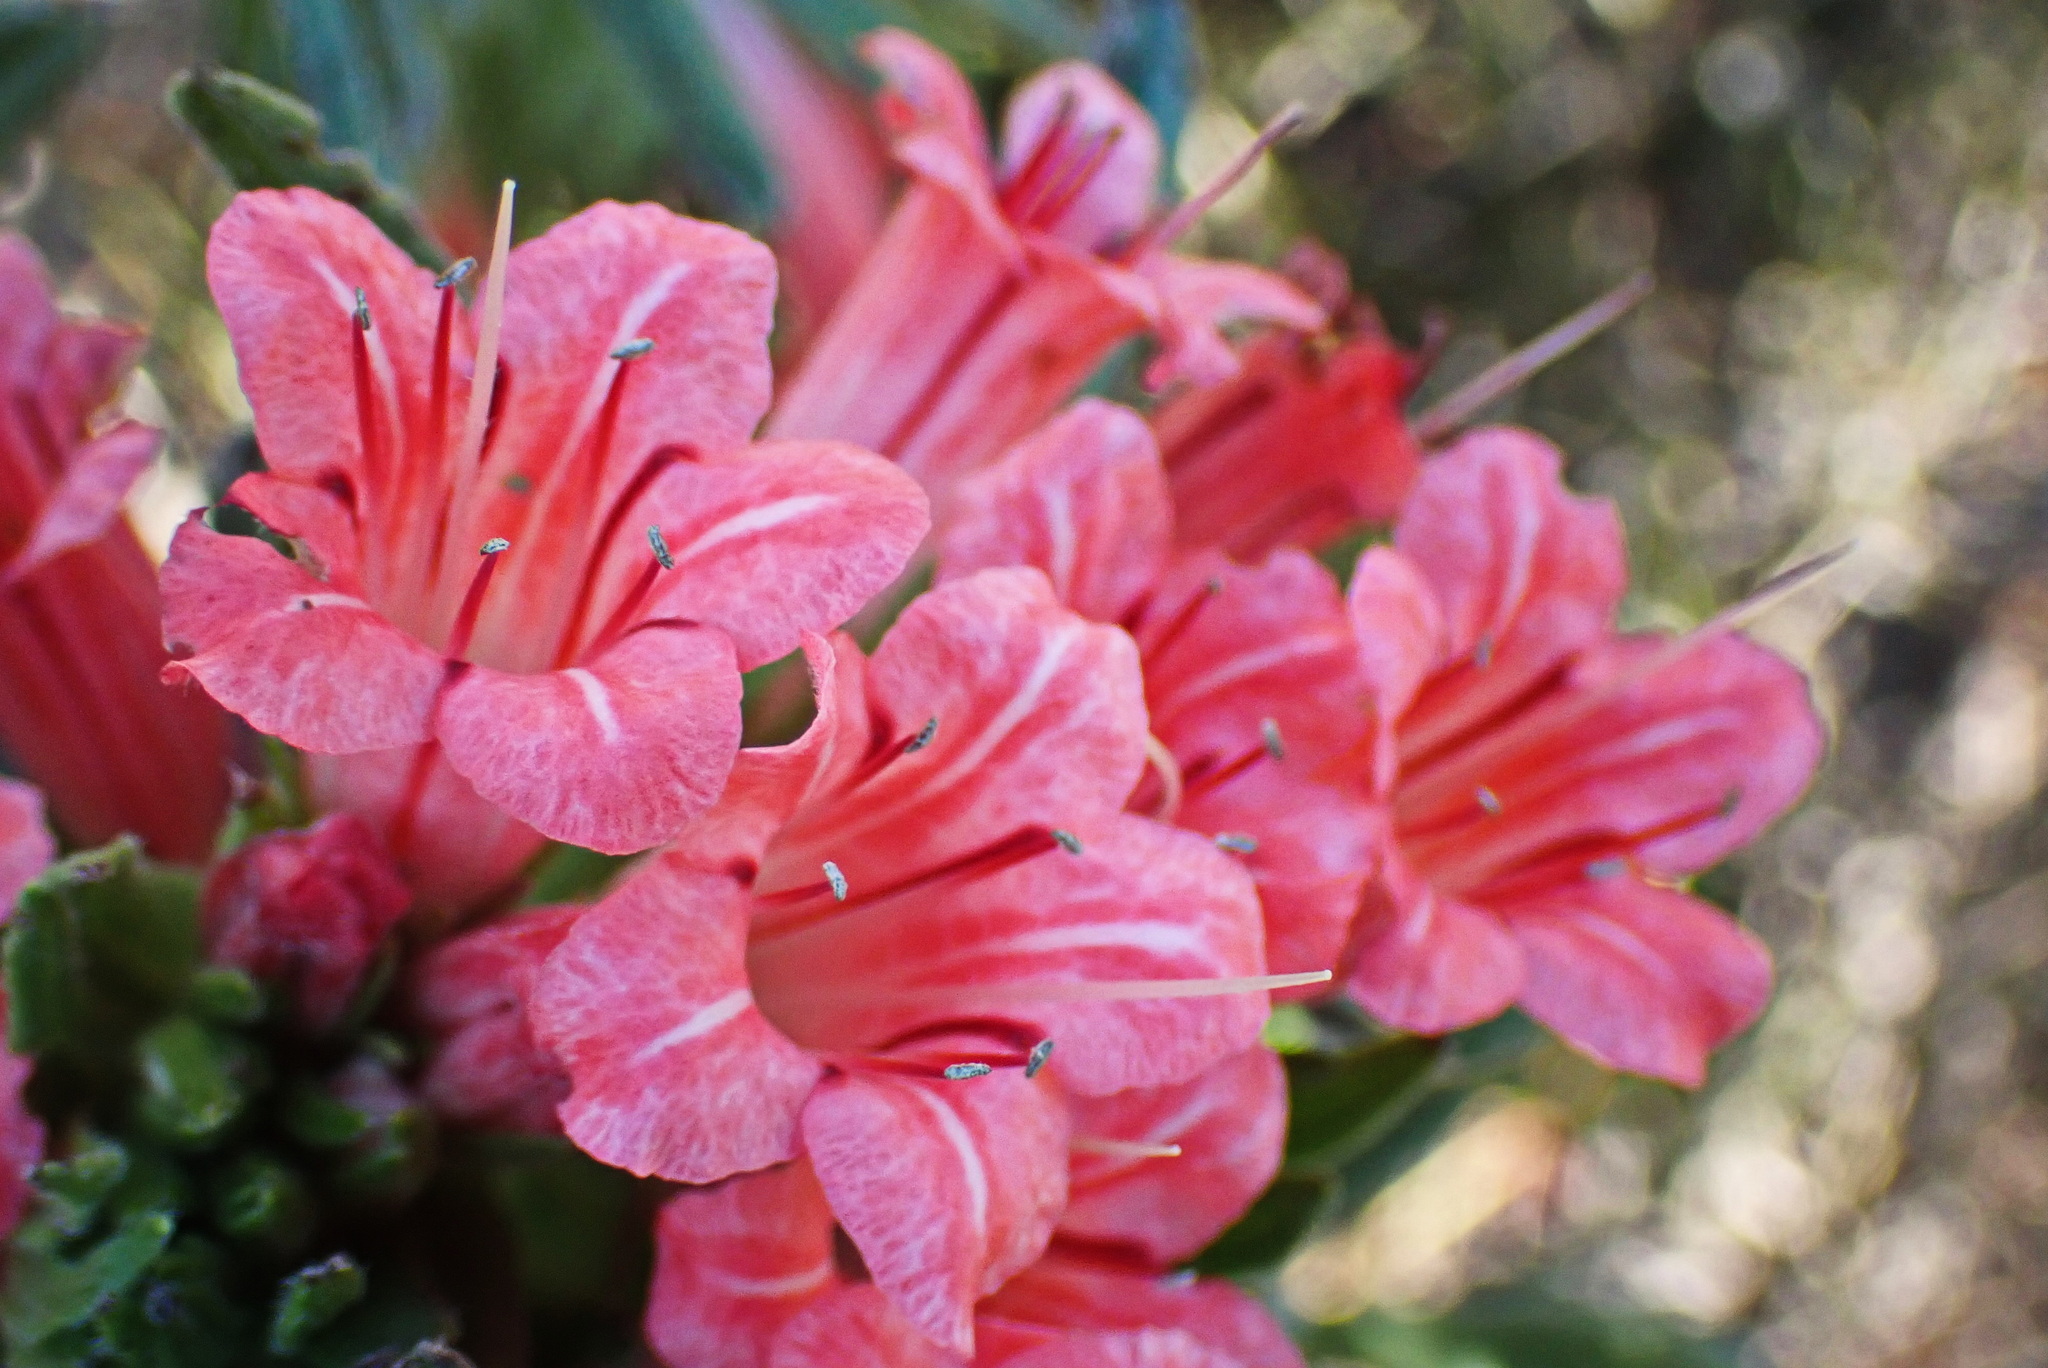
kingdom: Plantae
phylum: Tracheophyta
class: Magnoliopsida
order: Boraginales
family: Boraginaceae
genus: Lobostemon
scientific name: Lobostemon belliformis
